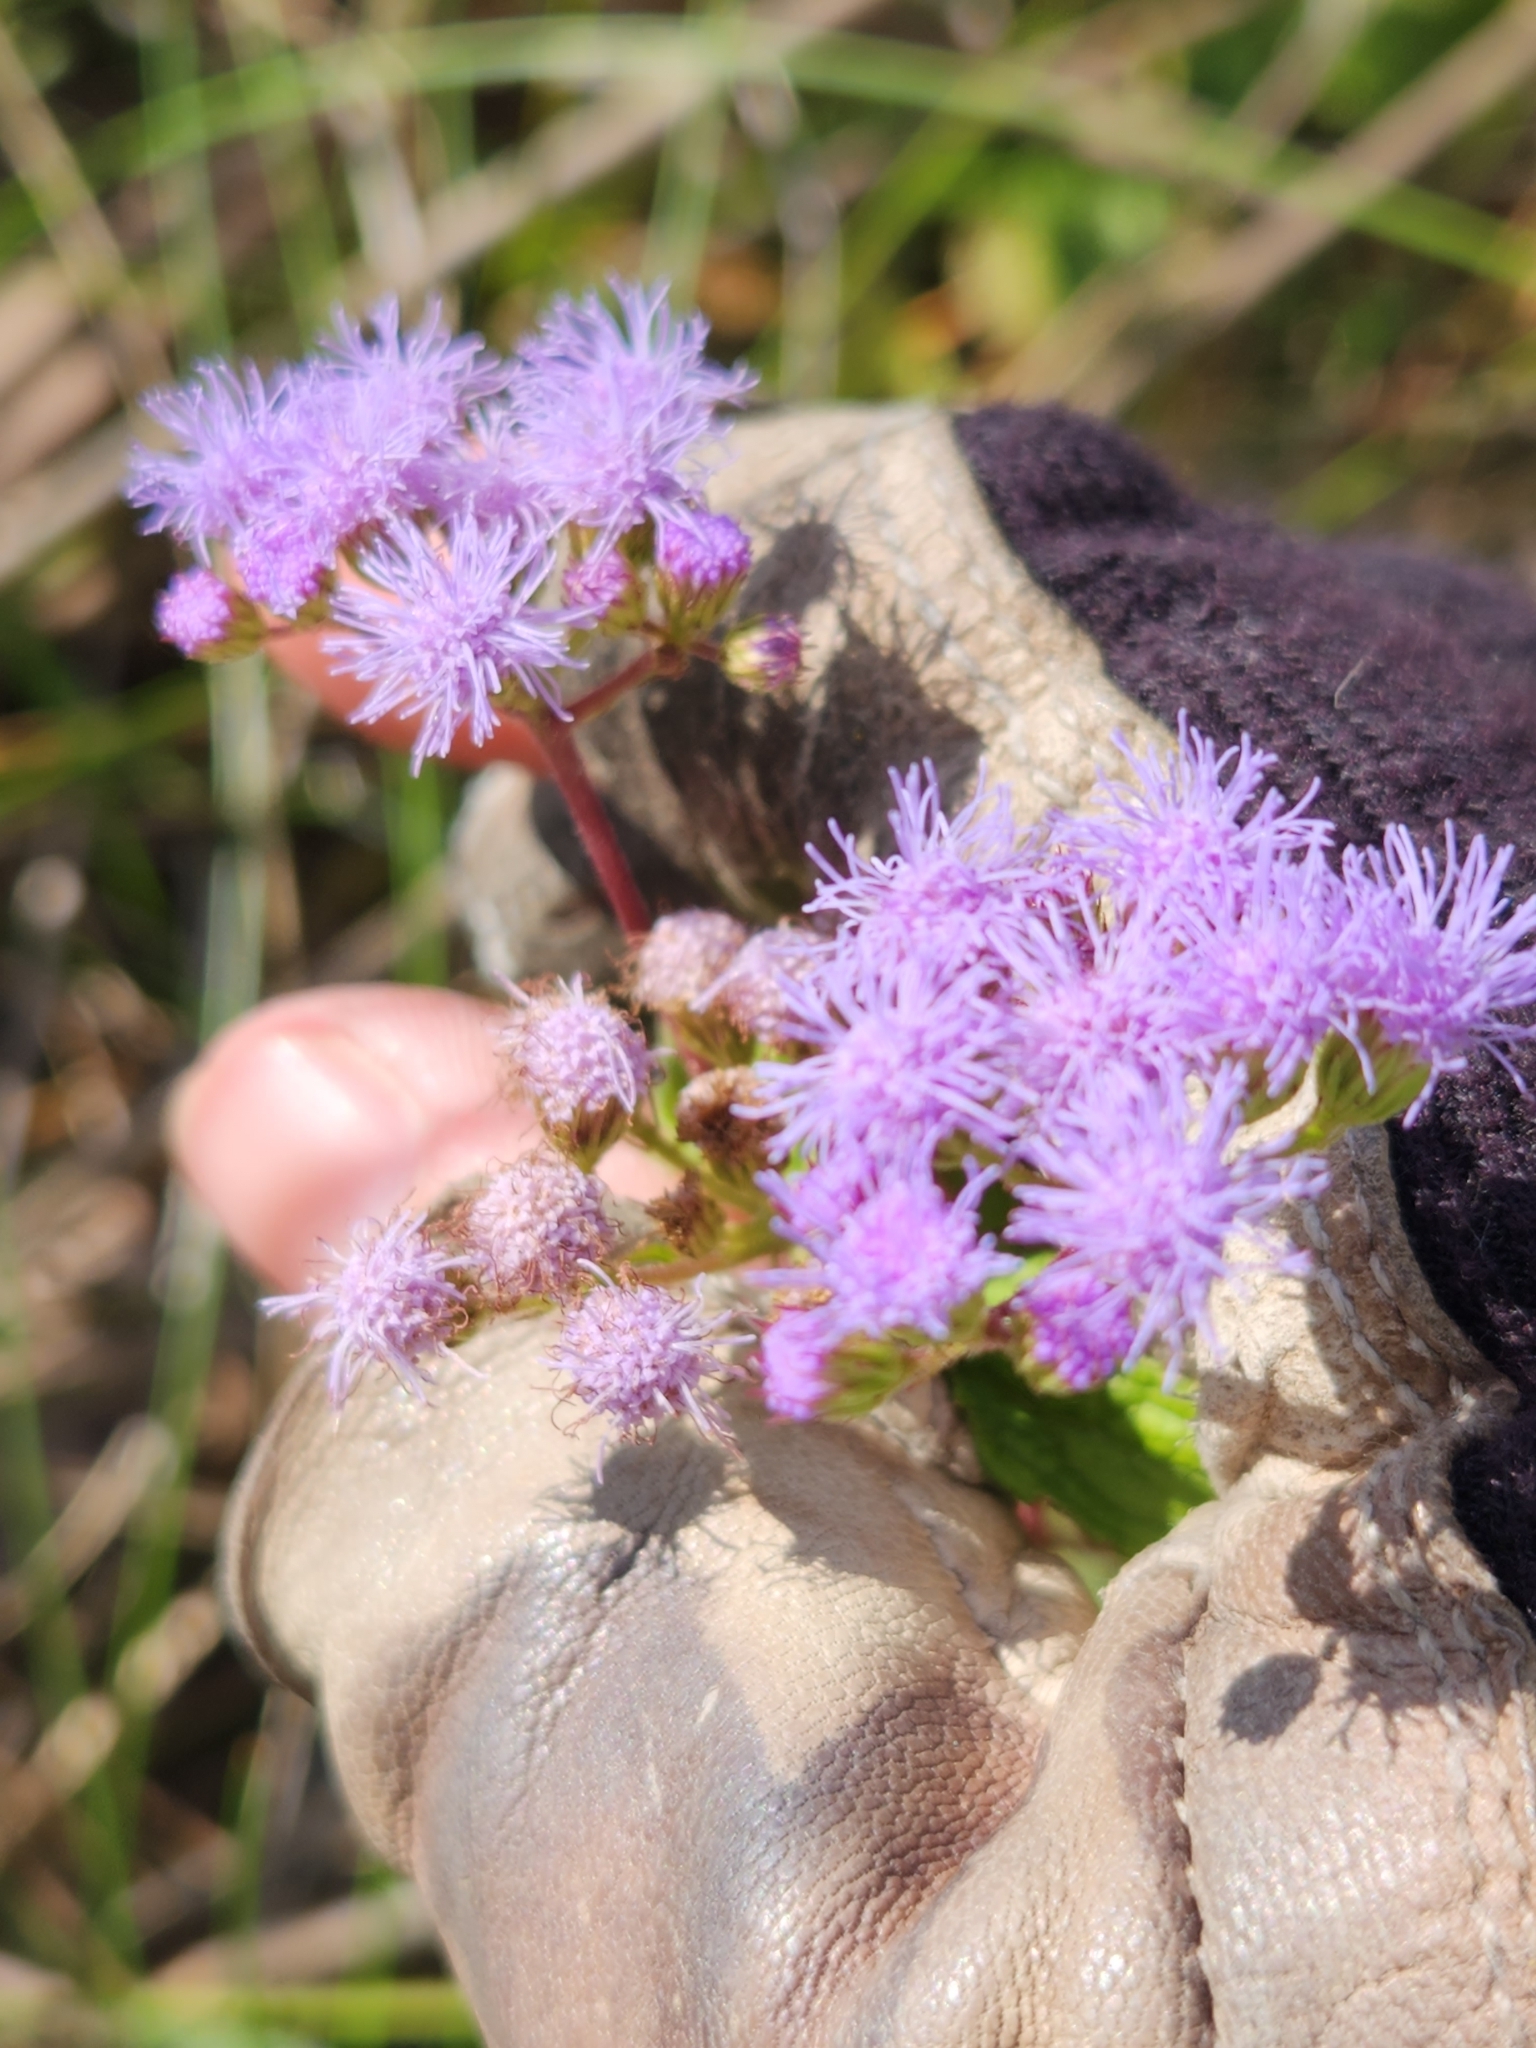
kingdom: Plantae
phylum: Tracheophyta
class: Magnoliopsida
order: Asterales
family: Asteraceae
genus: Conoclinium
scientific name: Conoclinium coelestinum
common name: Blue mistflower
